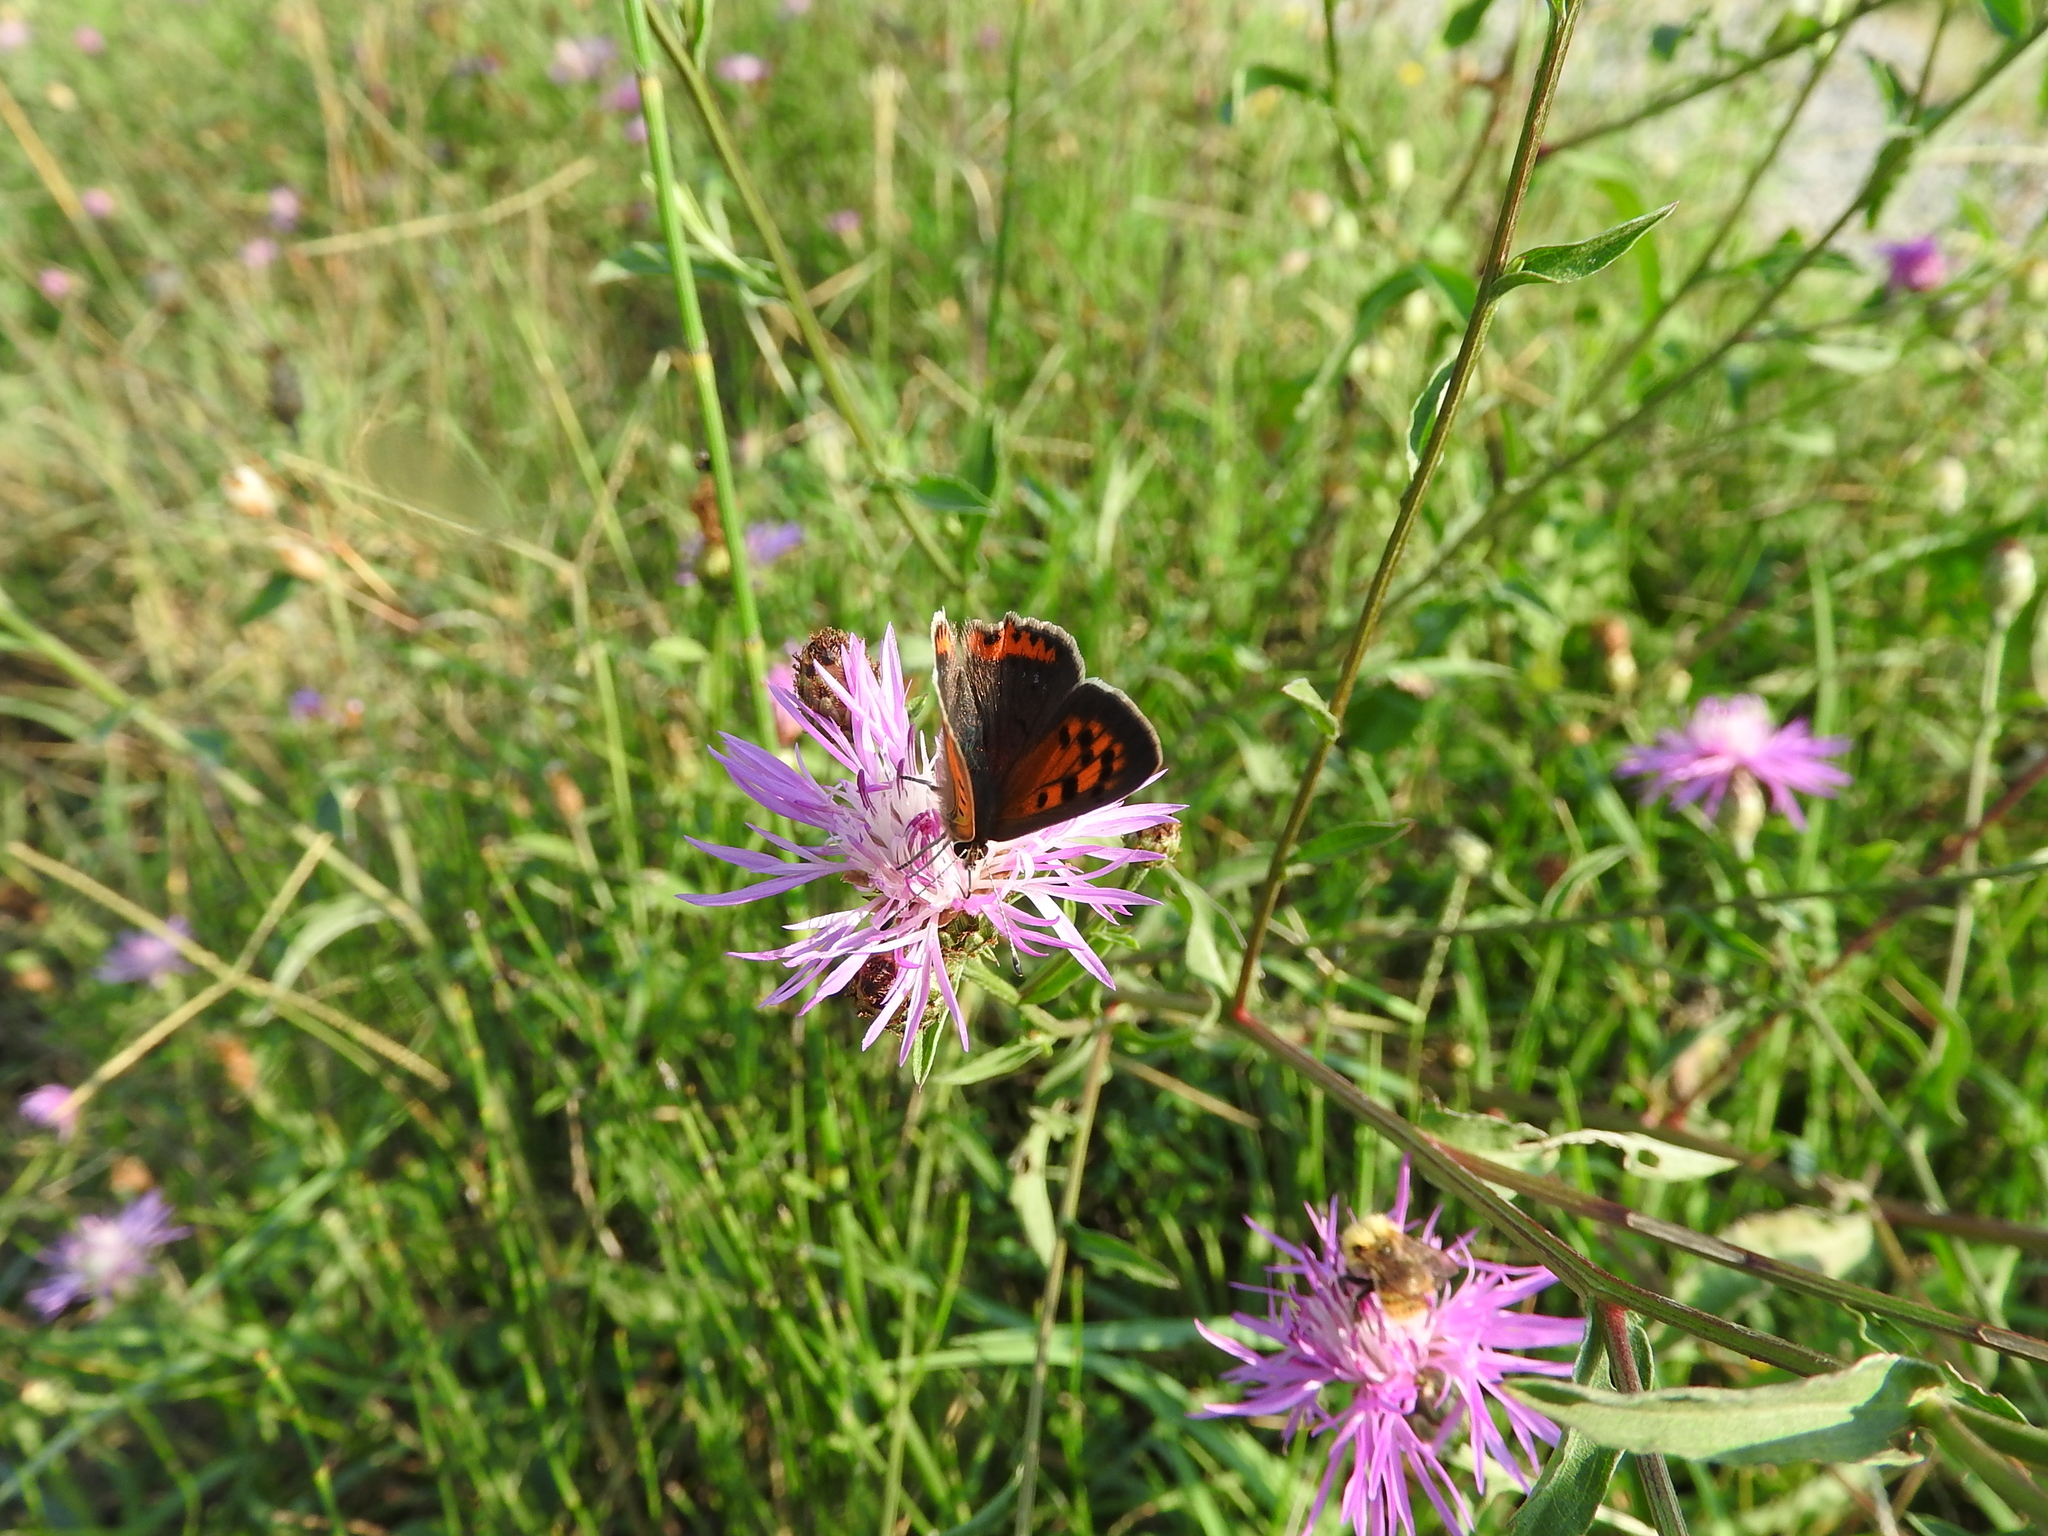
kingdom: Animalia
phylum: Arthropoda
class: Insecta
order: Lepidoptera
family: Lycaenidae
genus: Lycaena
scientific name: Lycaena phlaeas
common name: Small copper
